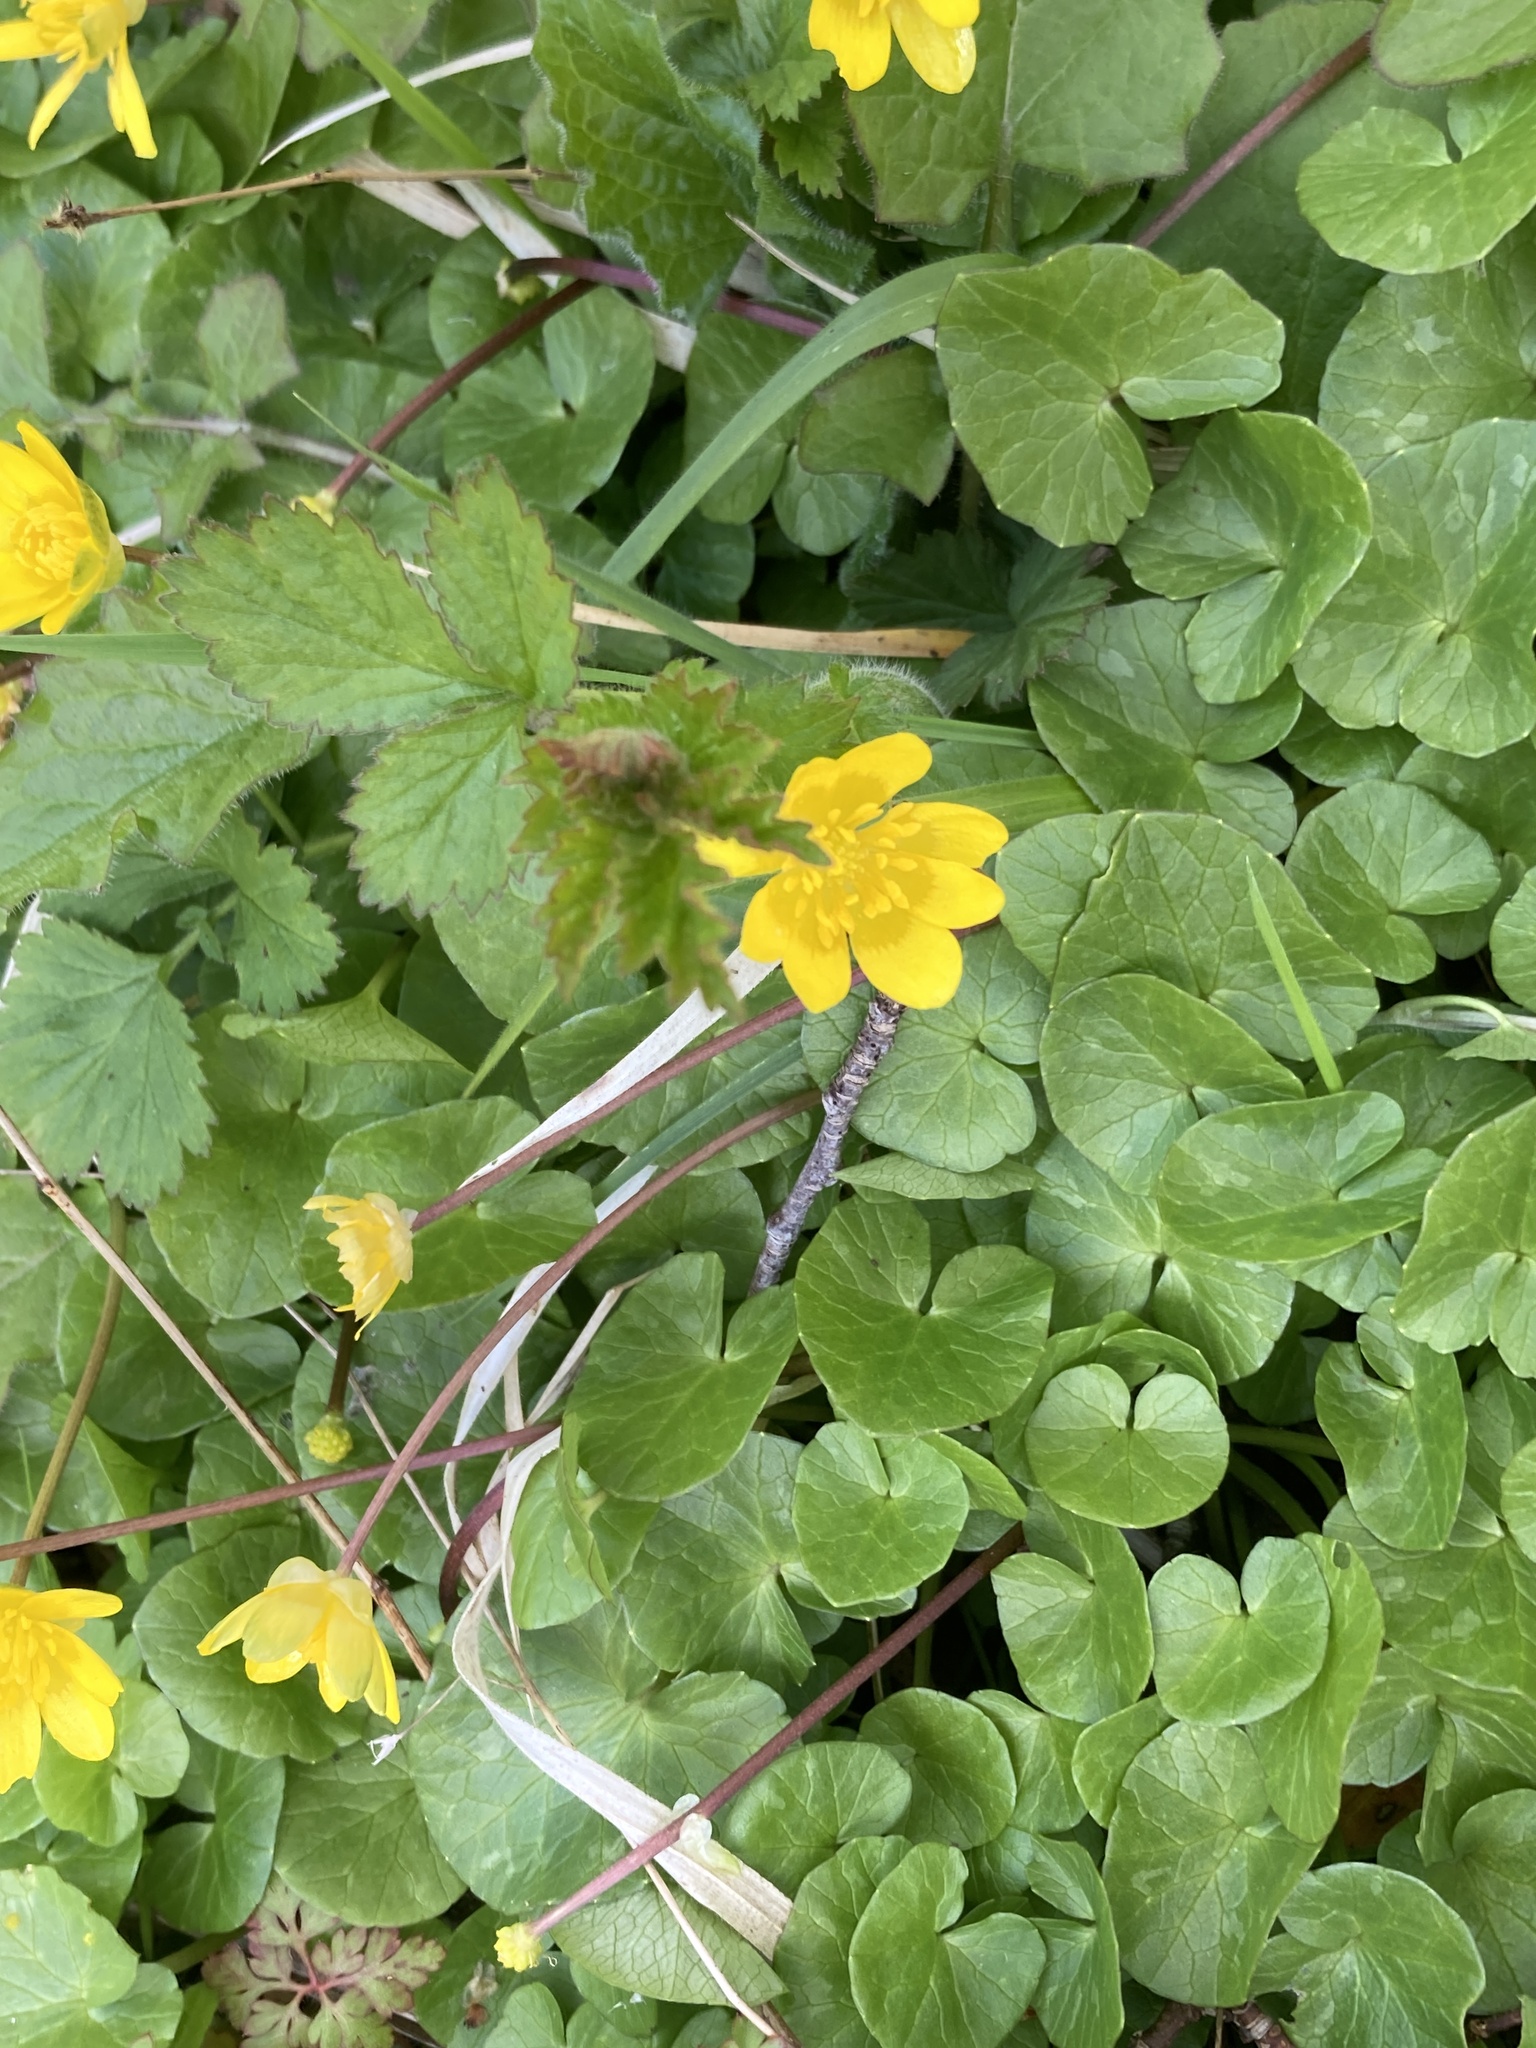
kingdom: Plantae
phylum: Tracheophyta
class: Magnoliopsida
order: Ranunculales
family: Ranunculaceae
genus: Ficaria
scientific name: Ficaria verna
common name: Lesser celandine
